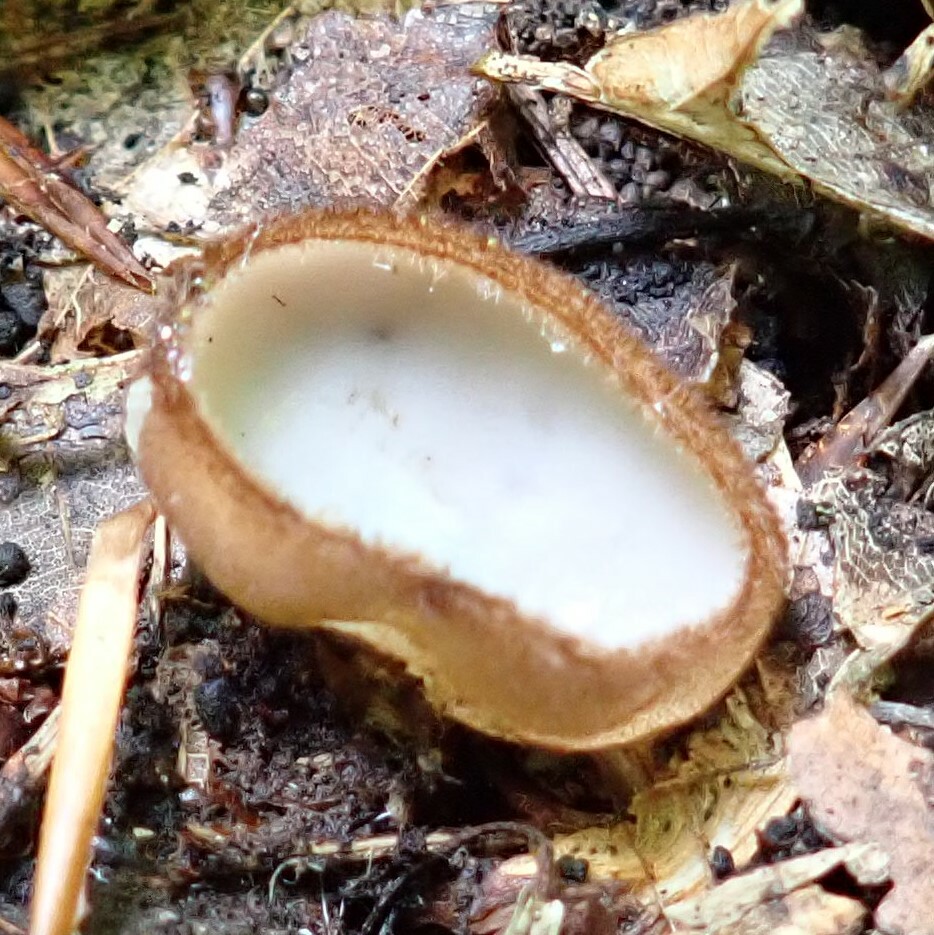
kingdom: Fungi
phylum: Ascomycota
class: Pezizomycetes
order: Pezizales
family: Pyronemataceae
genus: Humaria
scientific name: Humaria hemisphaerica
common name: Glazed cup
